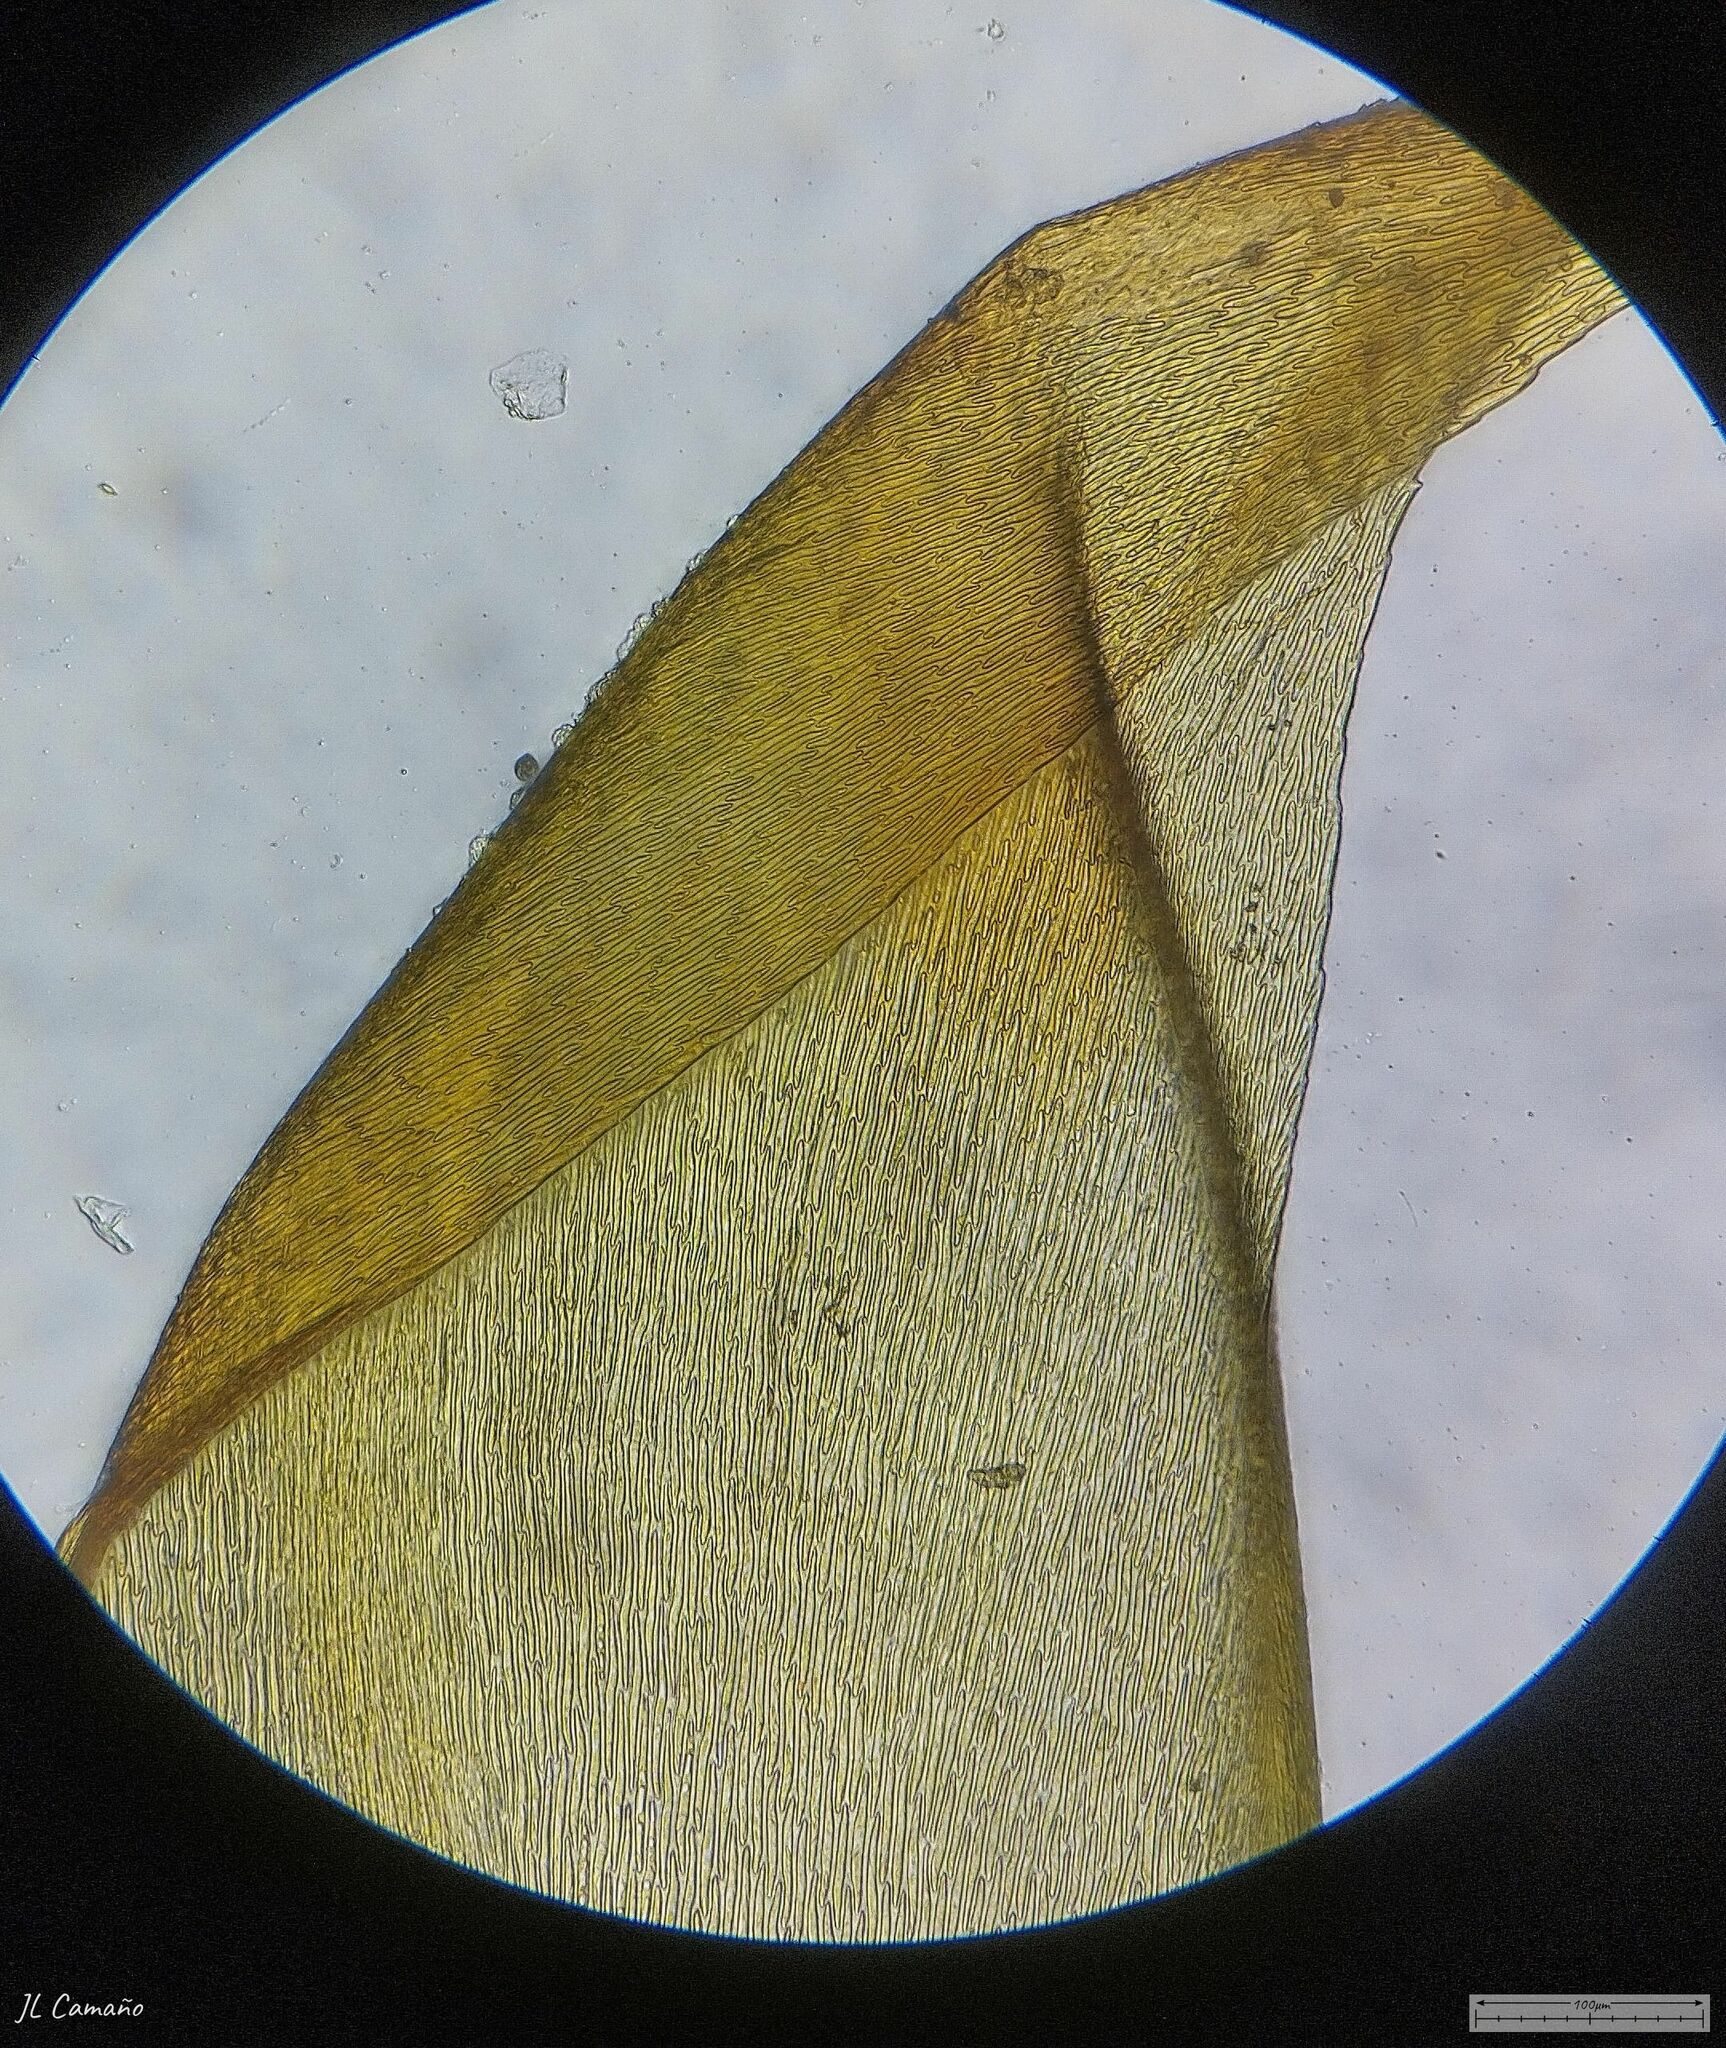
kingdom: Plantae
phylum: Bryophyta
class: Bryopsida
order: Hypnales
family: Hypnaceae
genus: Hypnum
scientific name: Hypnum cupressiforme
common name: Cypress-leaved plait-moss
